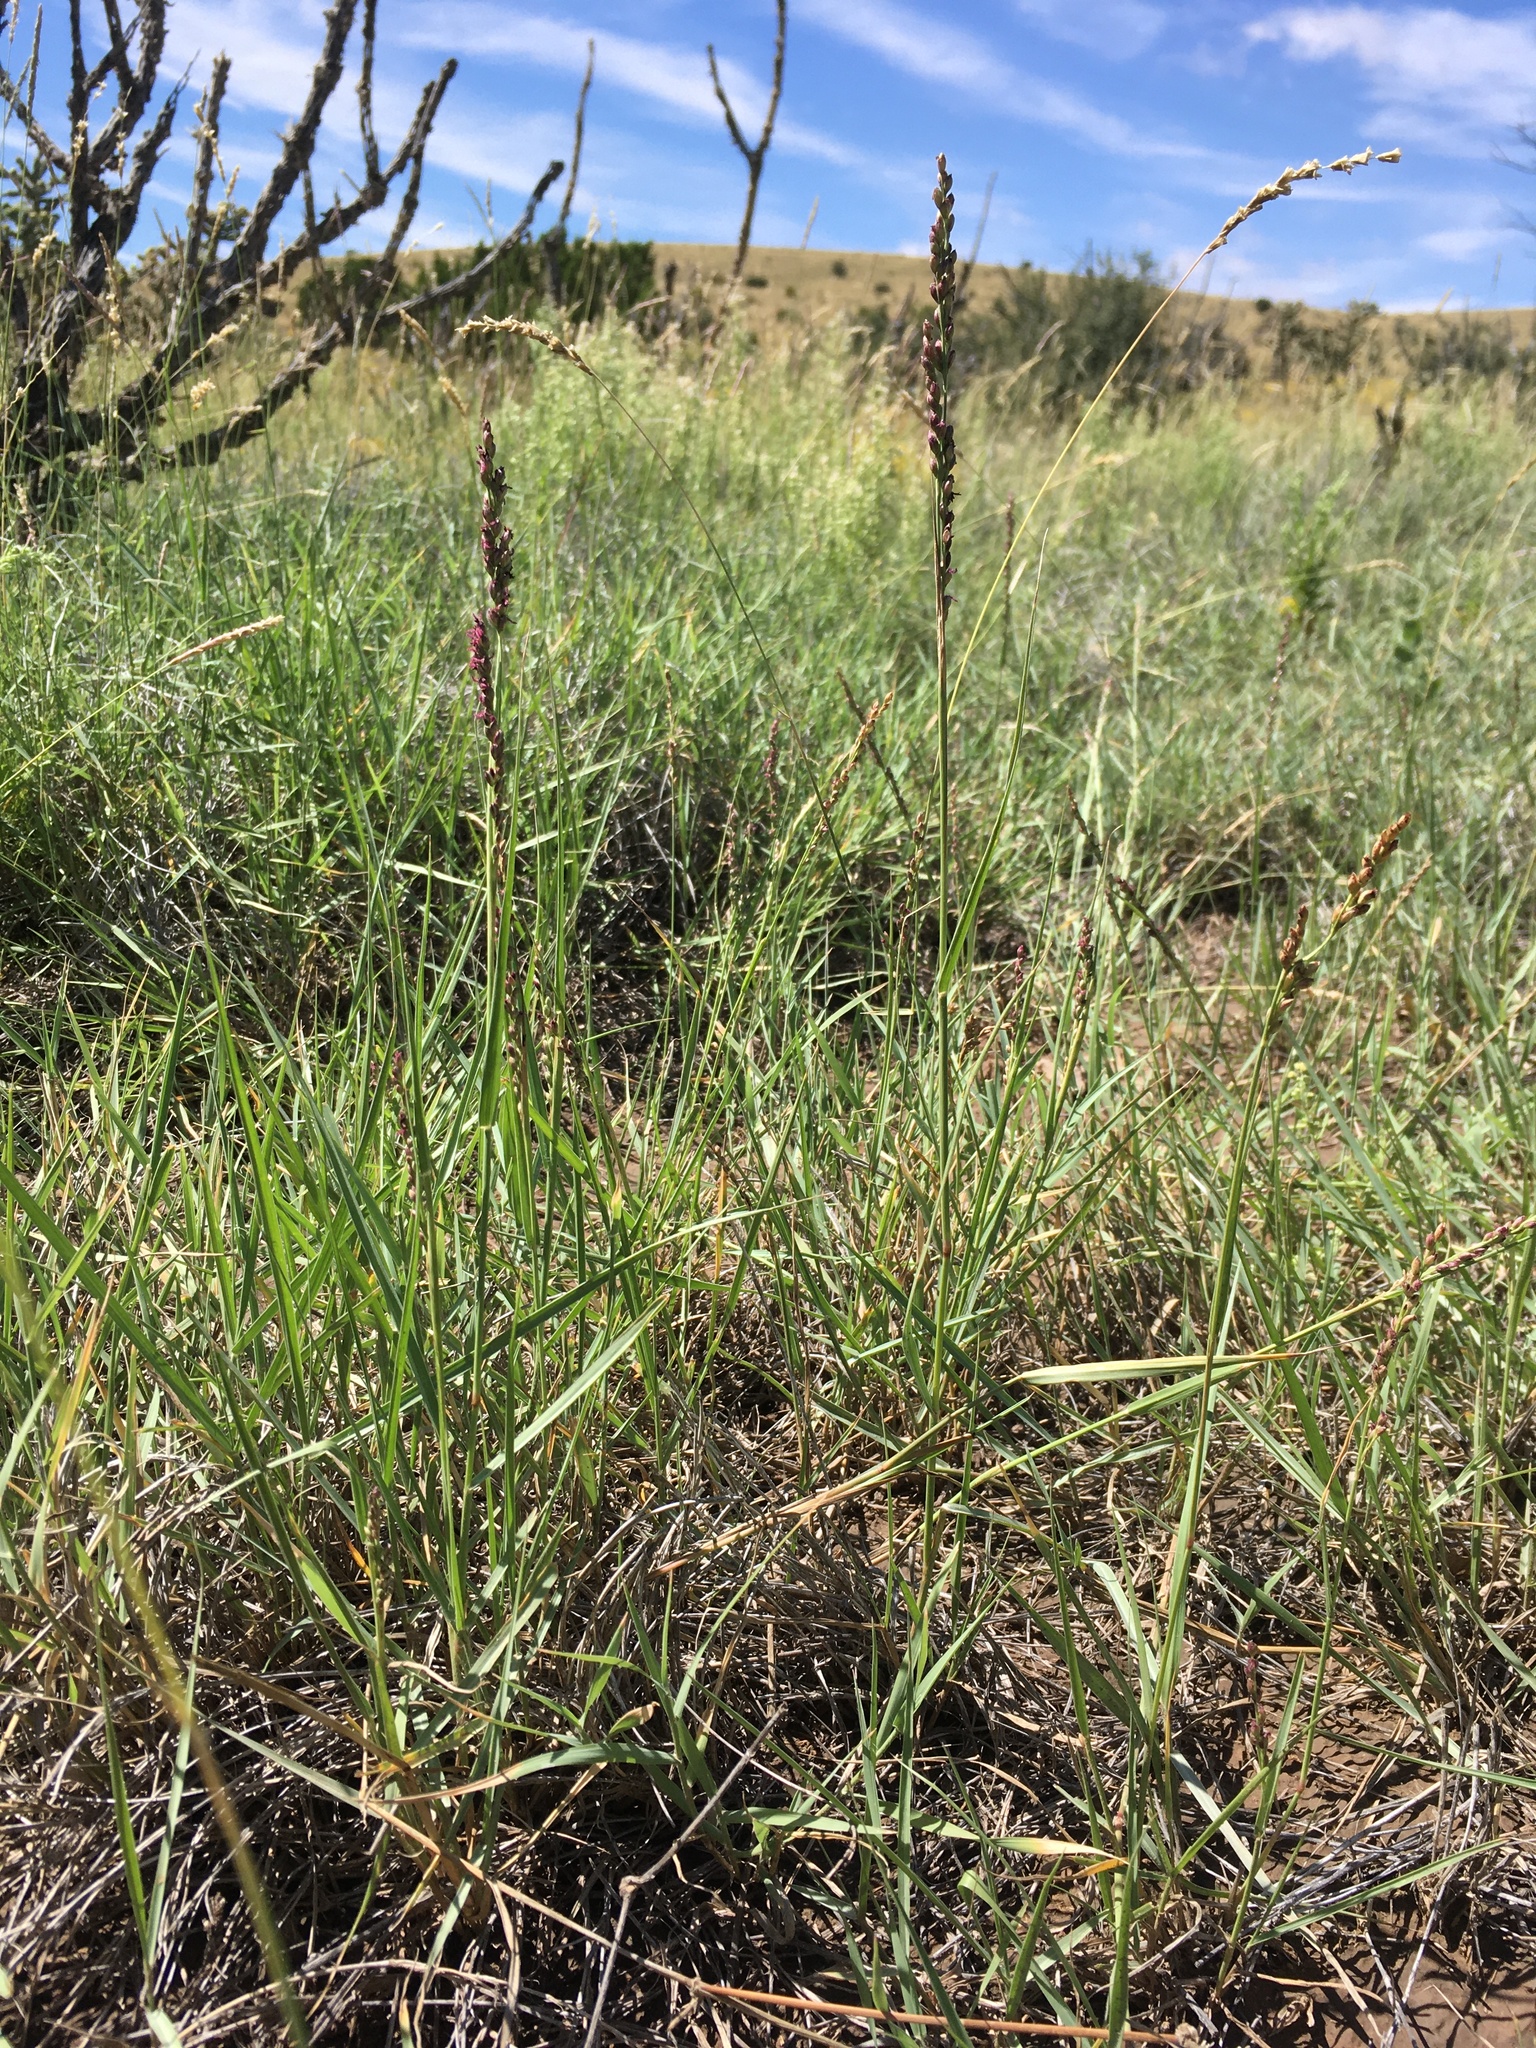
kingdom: Plantae
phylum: Tracheophyta
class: Liliopsida
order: Poales
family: Poaceae
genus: Hopia
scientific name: Hopia obtusa
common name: Vine-mesquite
